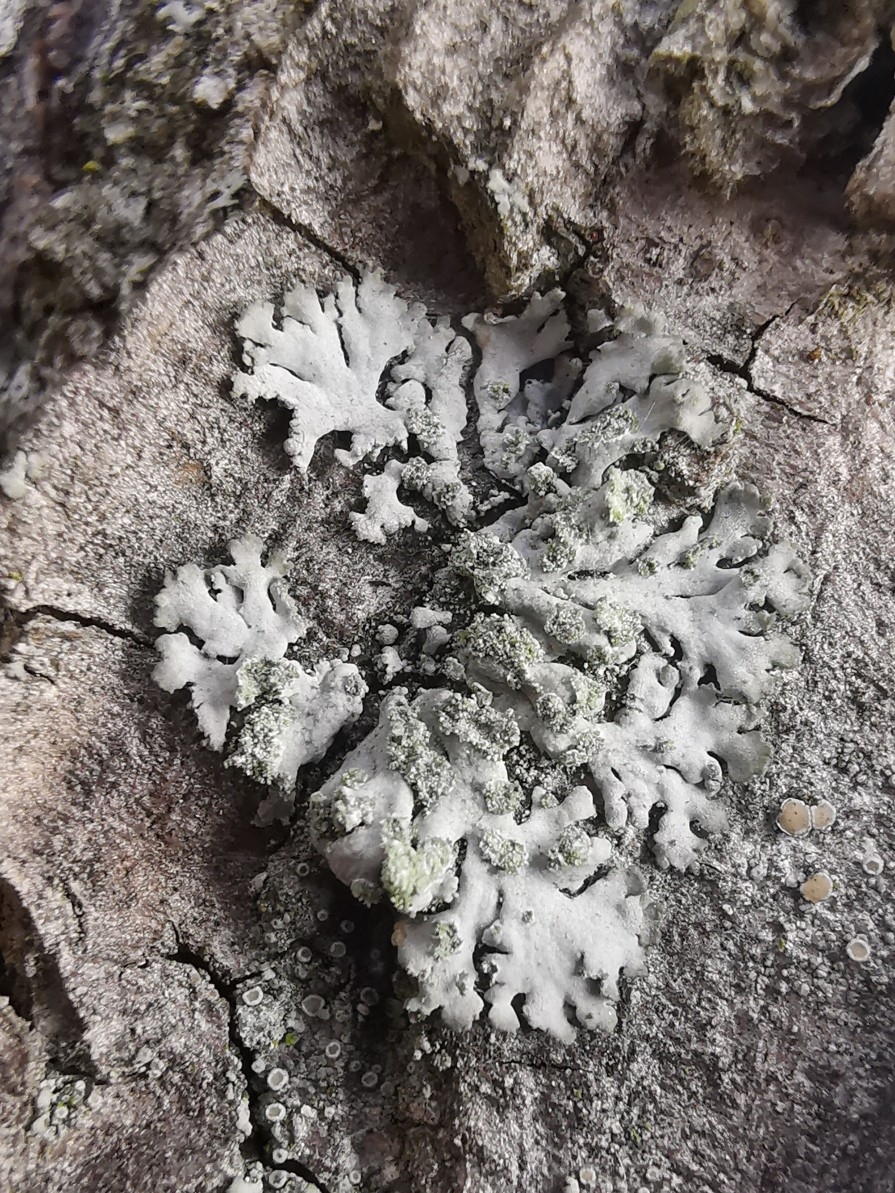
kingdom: Fungi
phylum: Ascomycota
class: Lecanoromycetes
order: Caliciales
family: Physciaceae
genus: Phaeophyscia
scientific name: Phaeophyscia orbicularis
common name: Mealy shadow lichen
